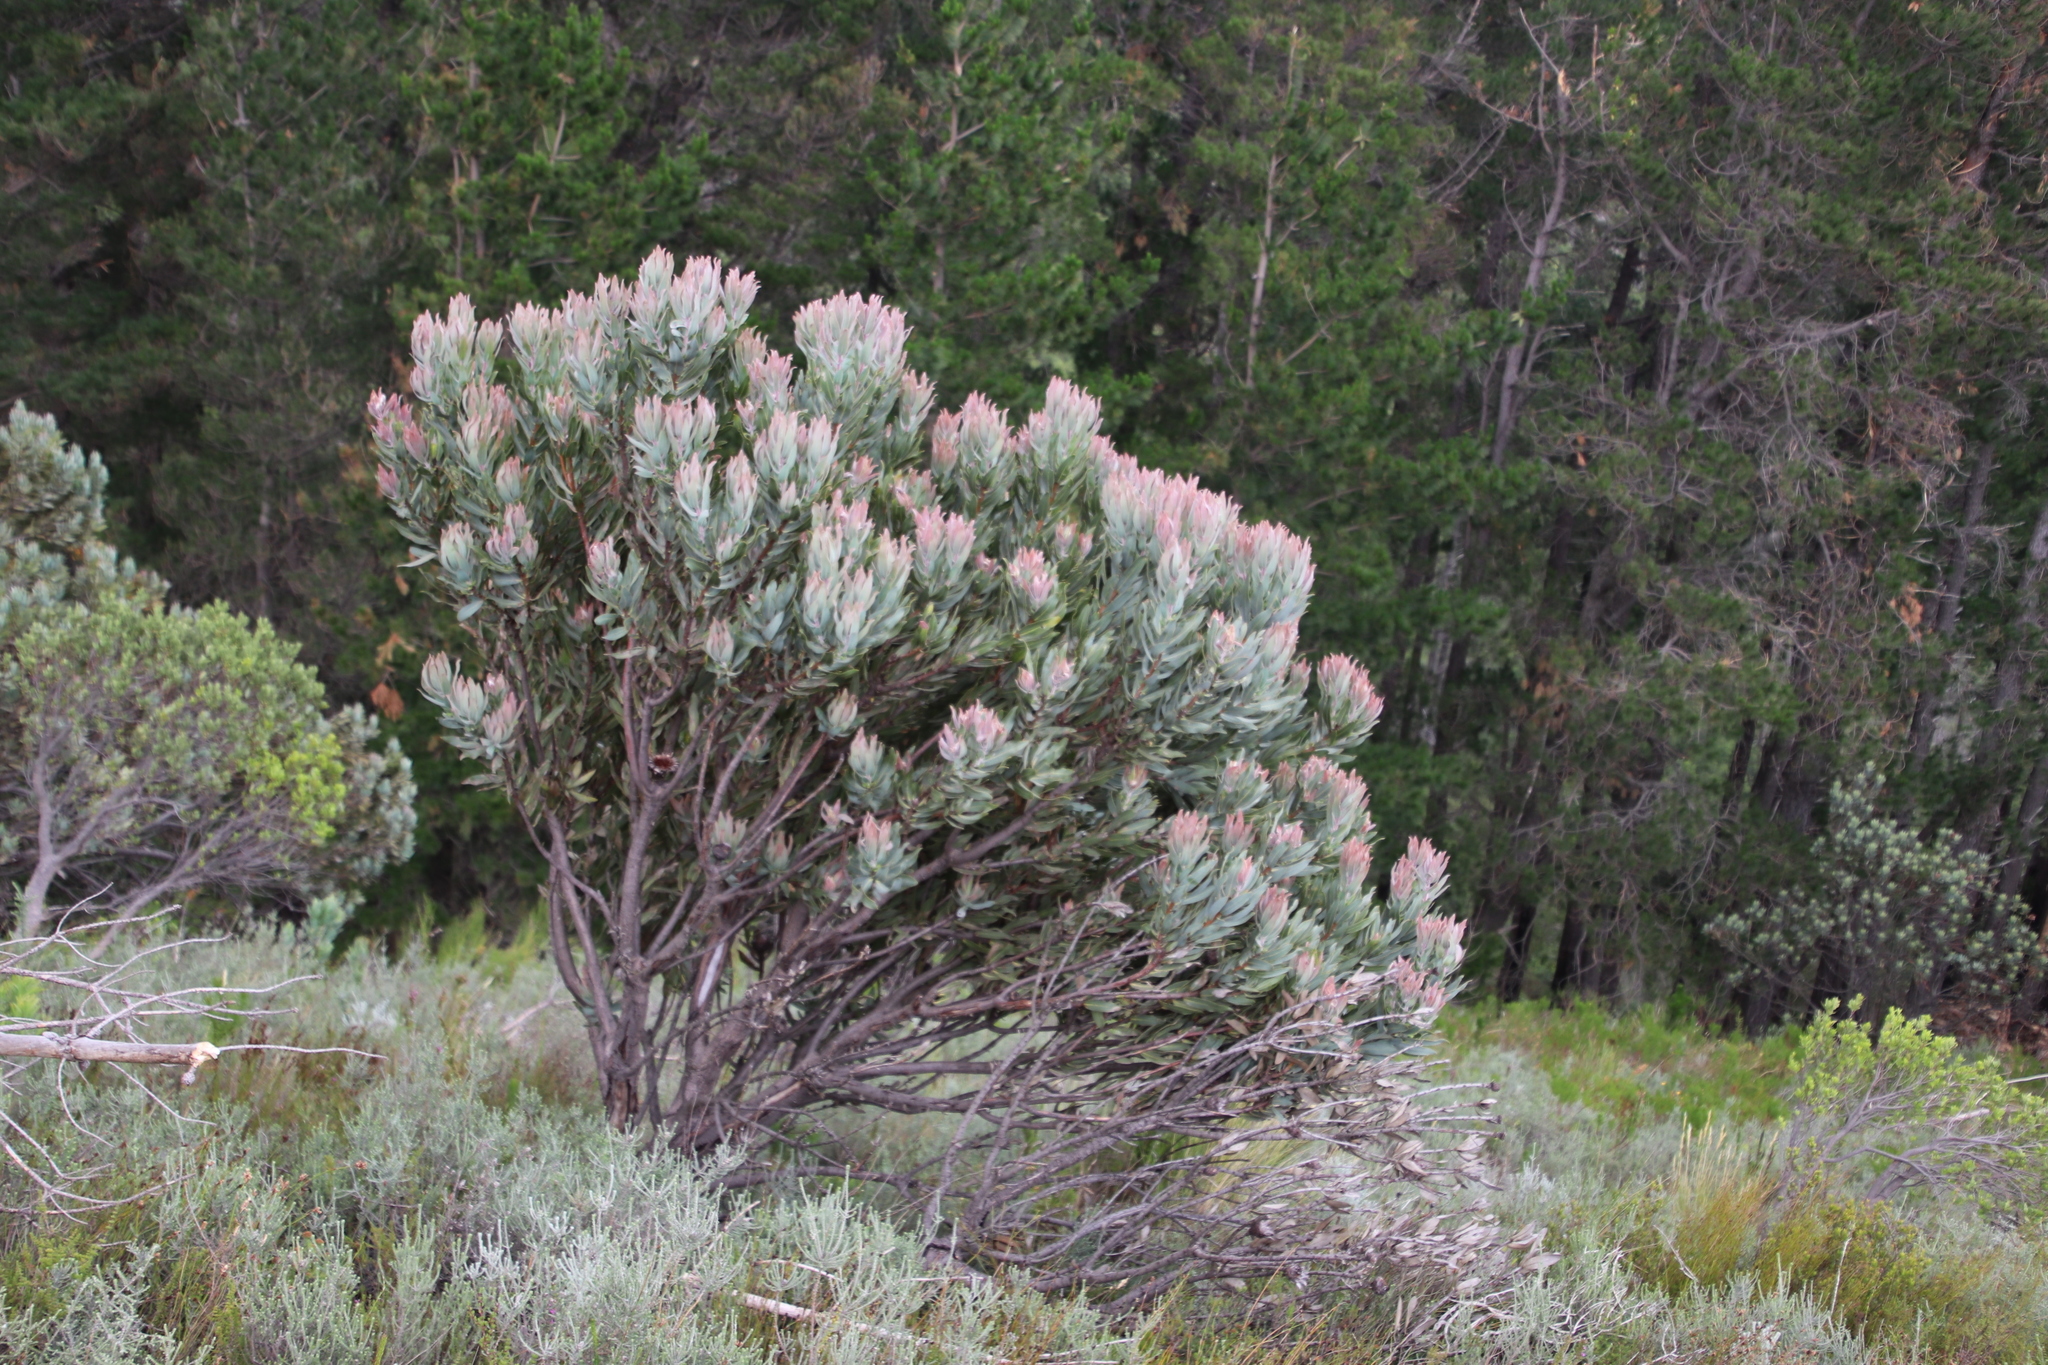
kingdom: Plantae
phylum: Tracheophyta
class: Magnoliopsida
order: Proteales
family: Proteaceae
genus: Protea
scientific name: Protea laurifolia
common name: Grey-leaf sugarbsh
